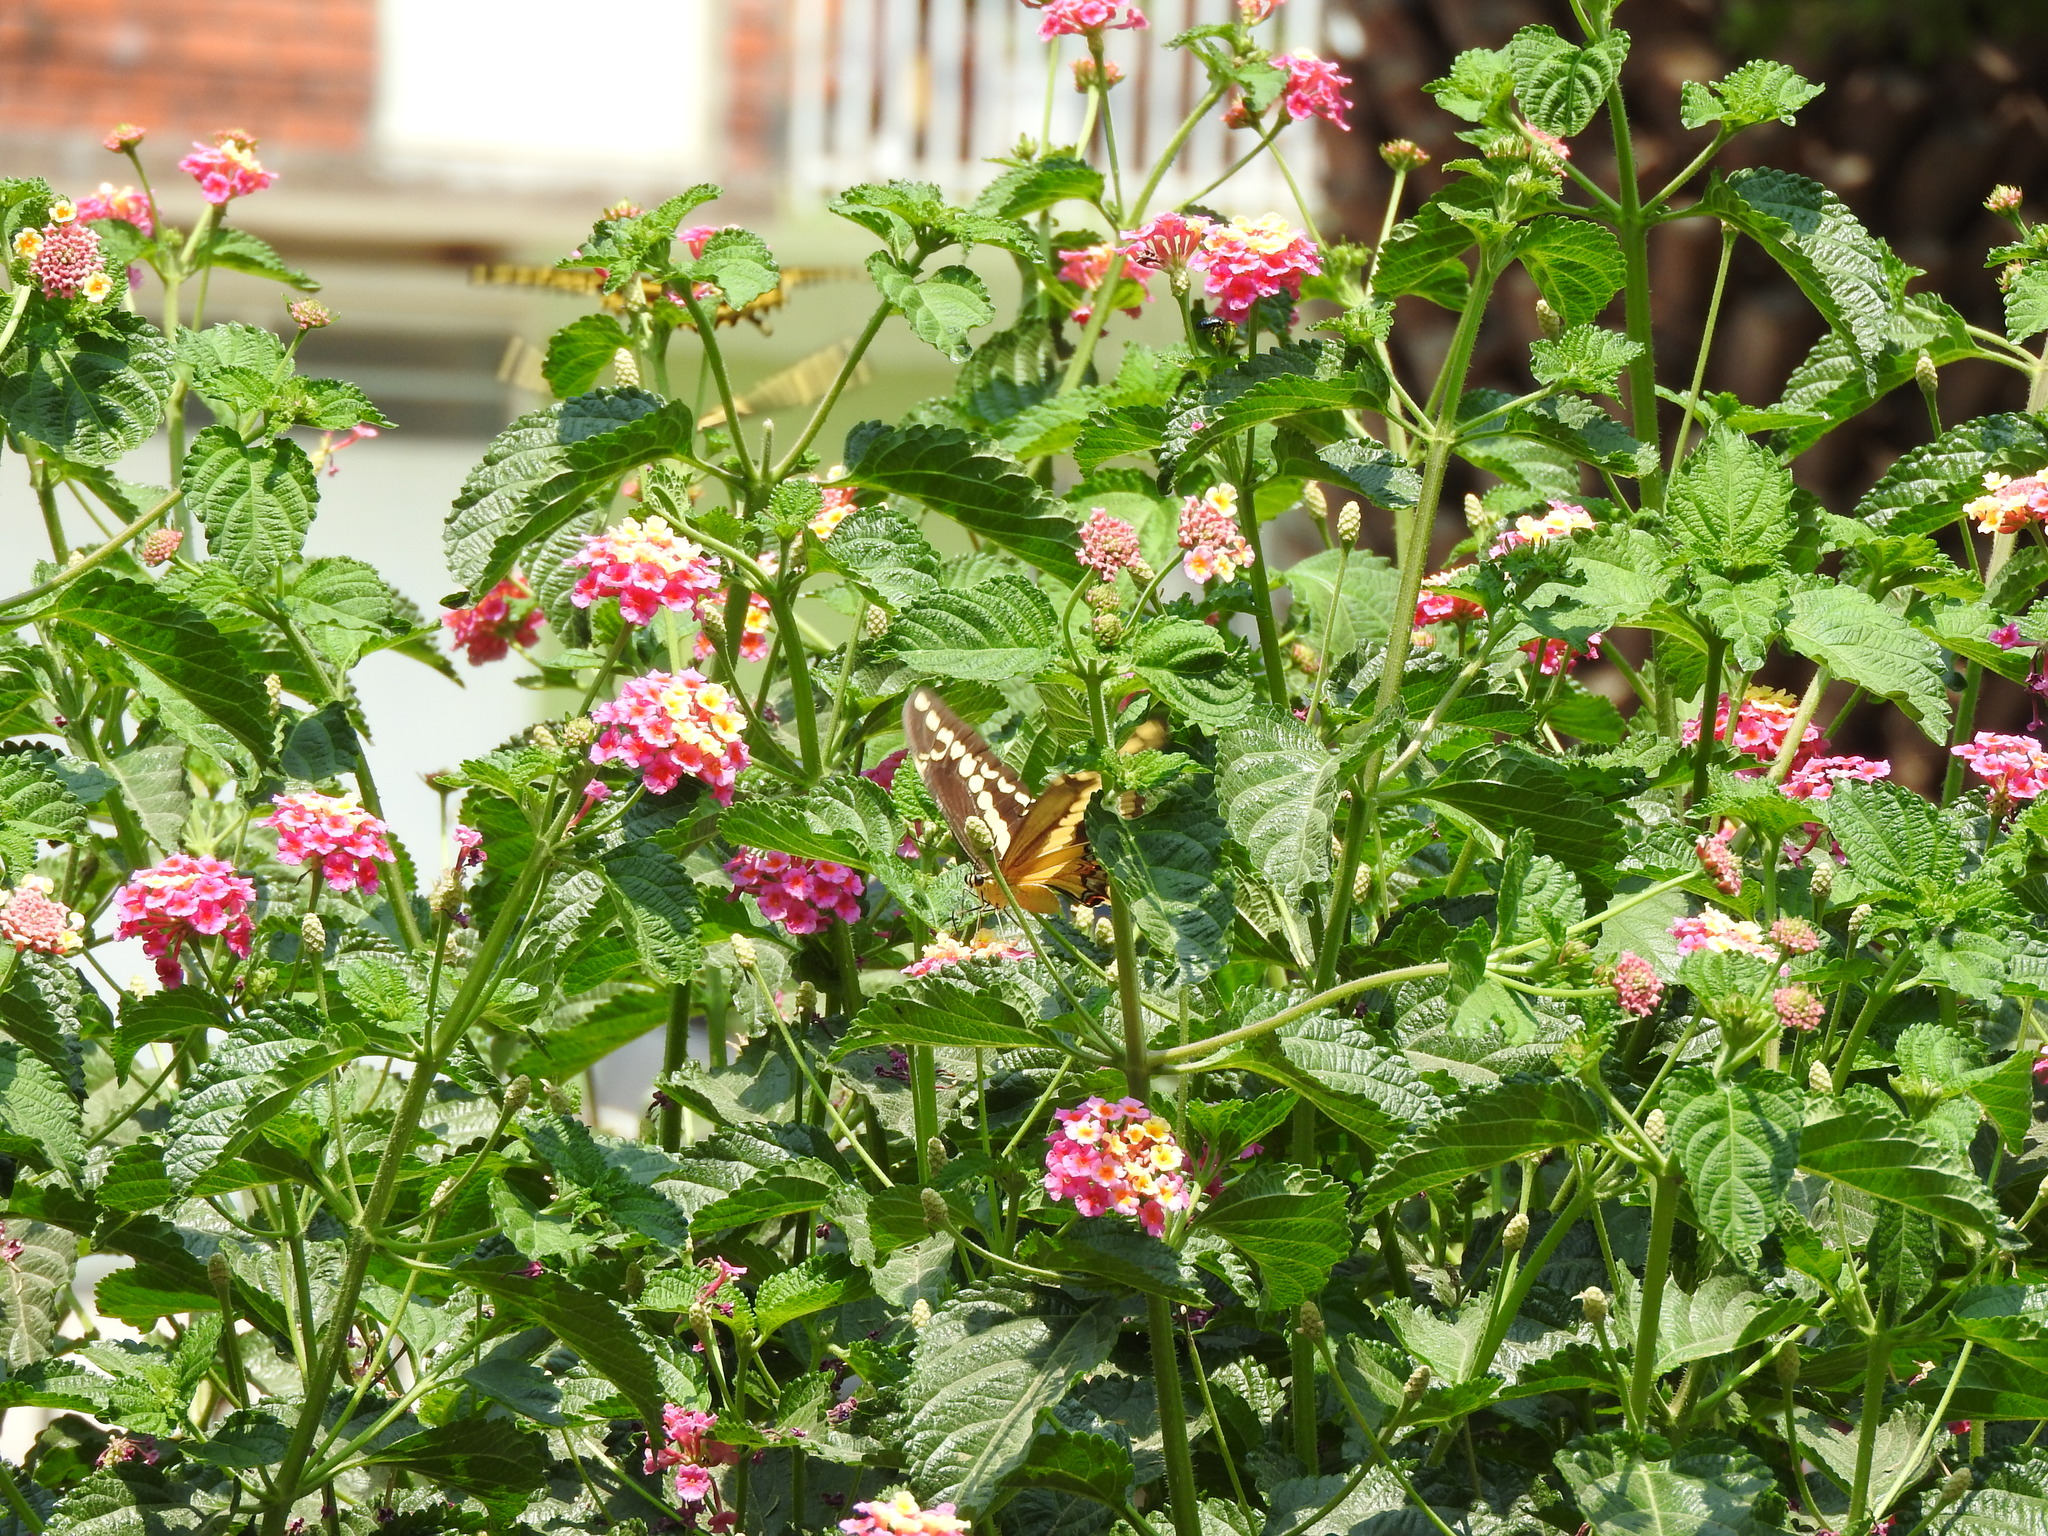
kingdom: Animalia
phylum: Arthropoda
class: Insecta
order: Lepidoptera
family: Papilionidae
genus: Papilio
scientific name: Papilio rumiko
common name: Western giant swallowtail
